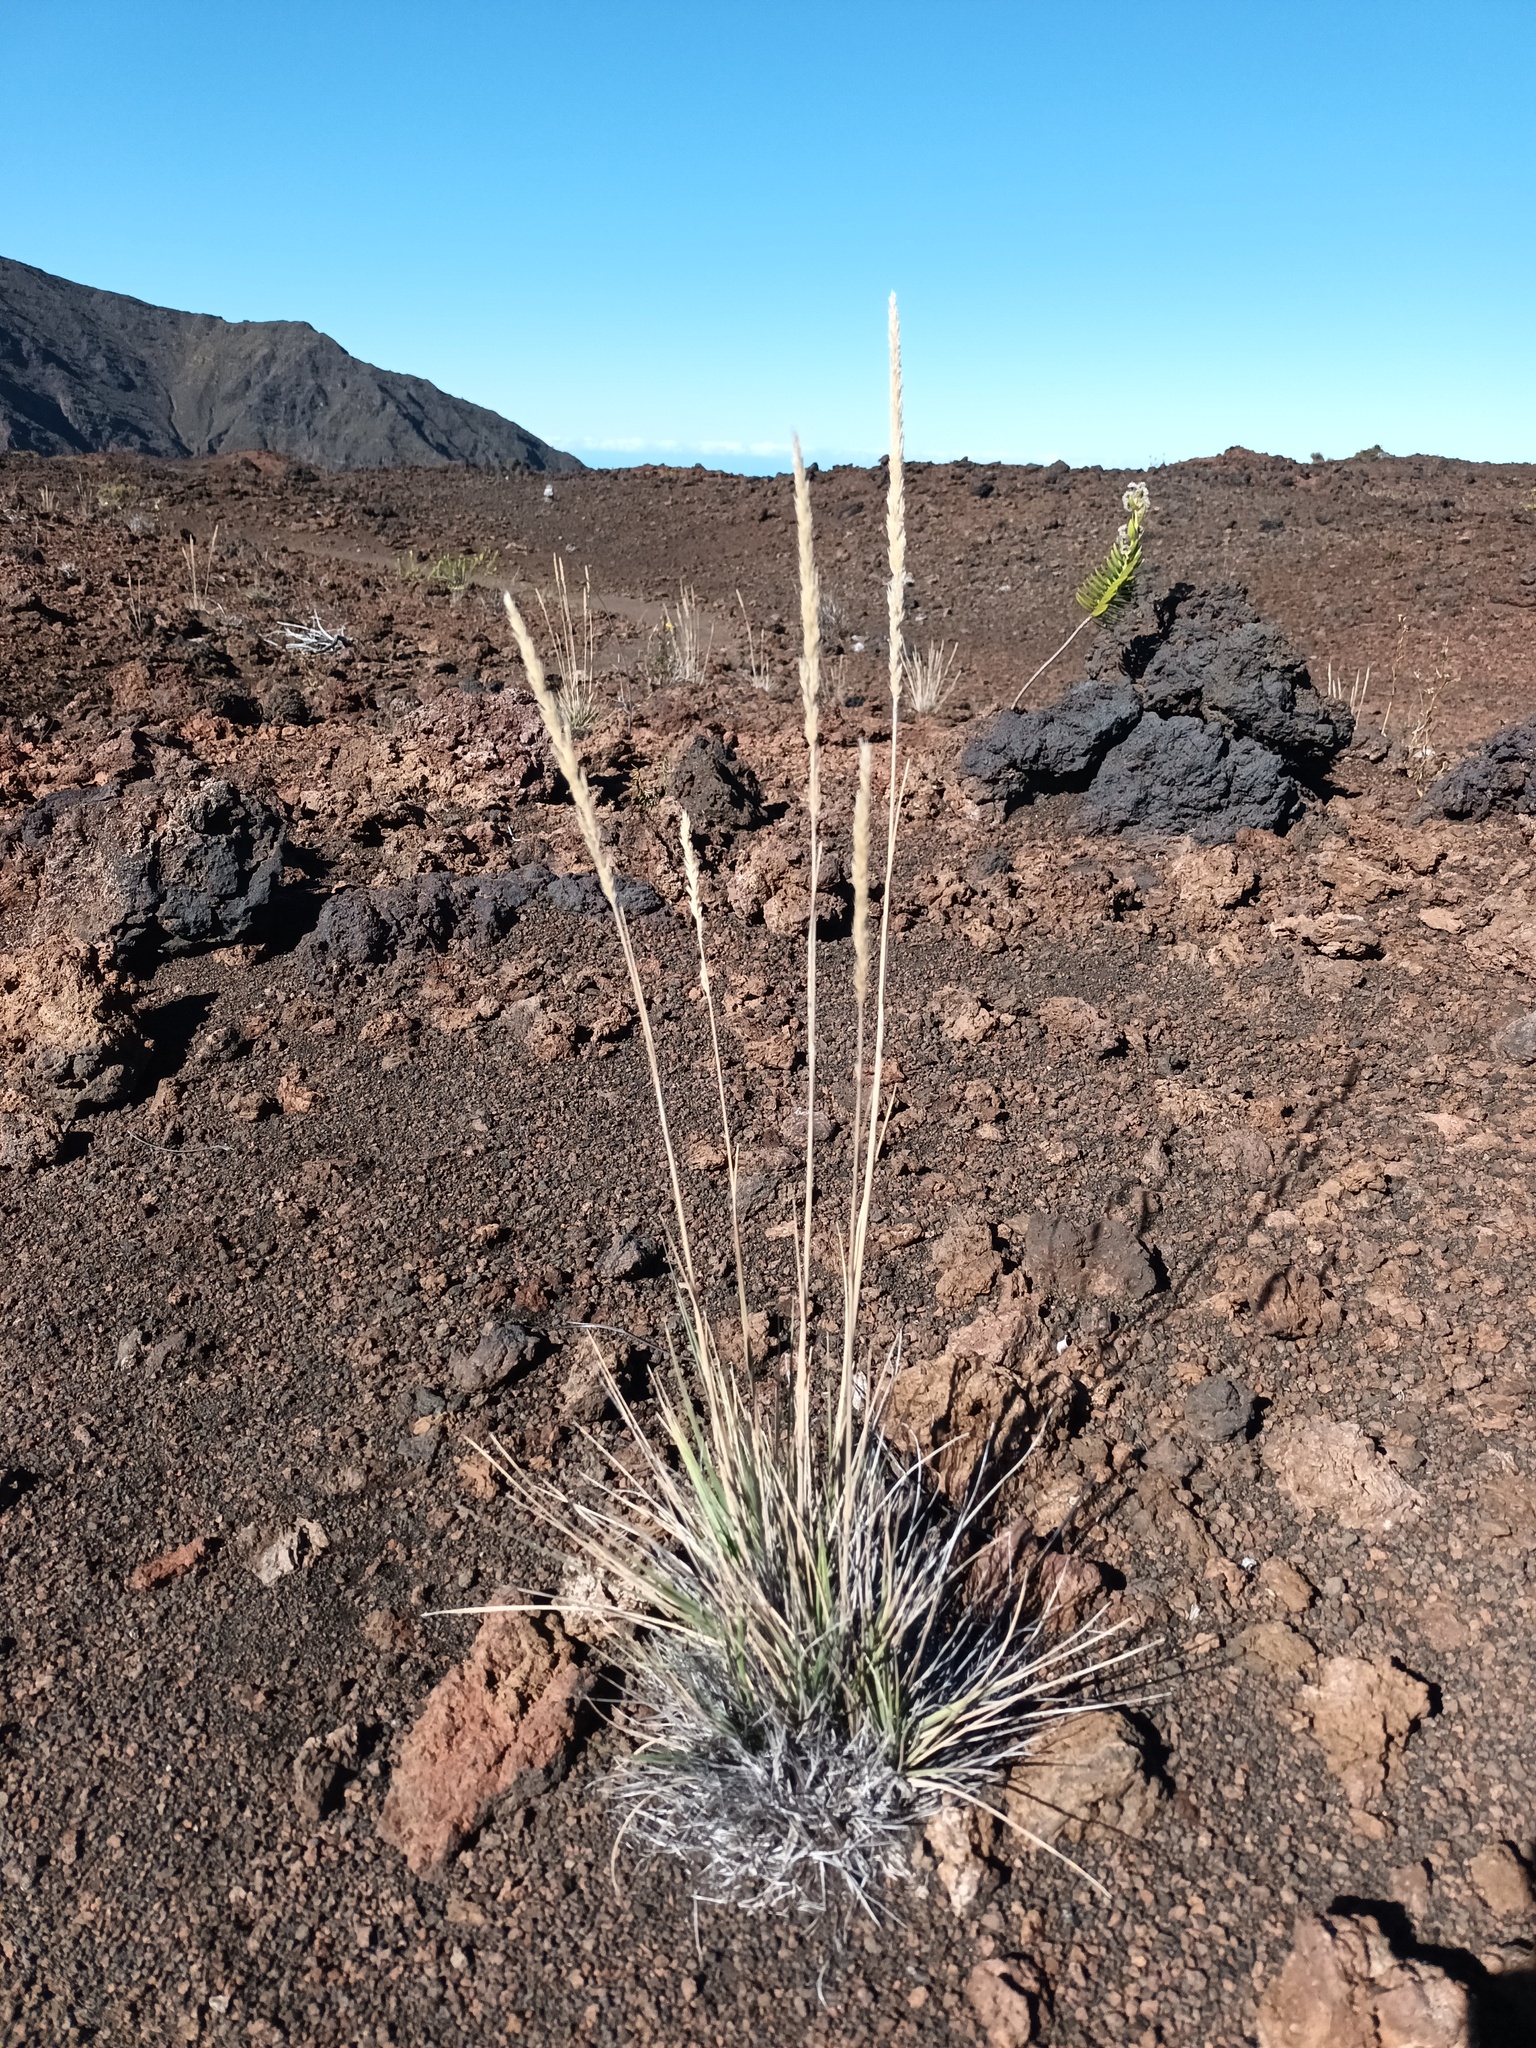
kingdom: Plantae
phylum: Tracheophyta
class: Liliopsida
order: Poales
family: Poaceae
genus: Trisetum
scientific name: Trisetum glomeratum
